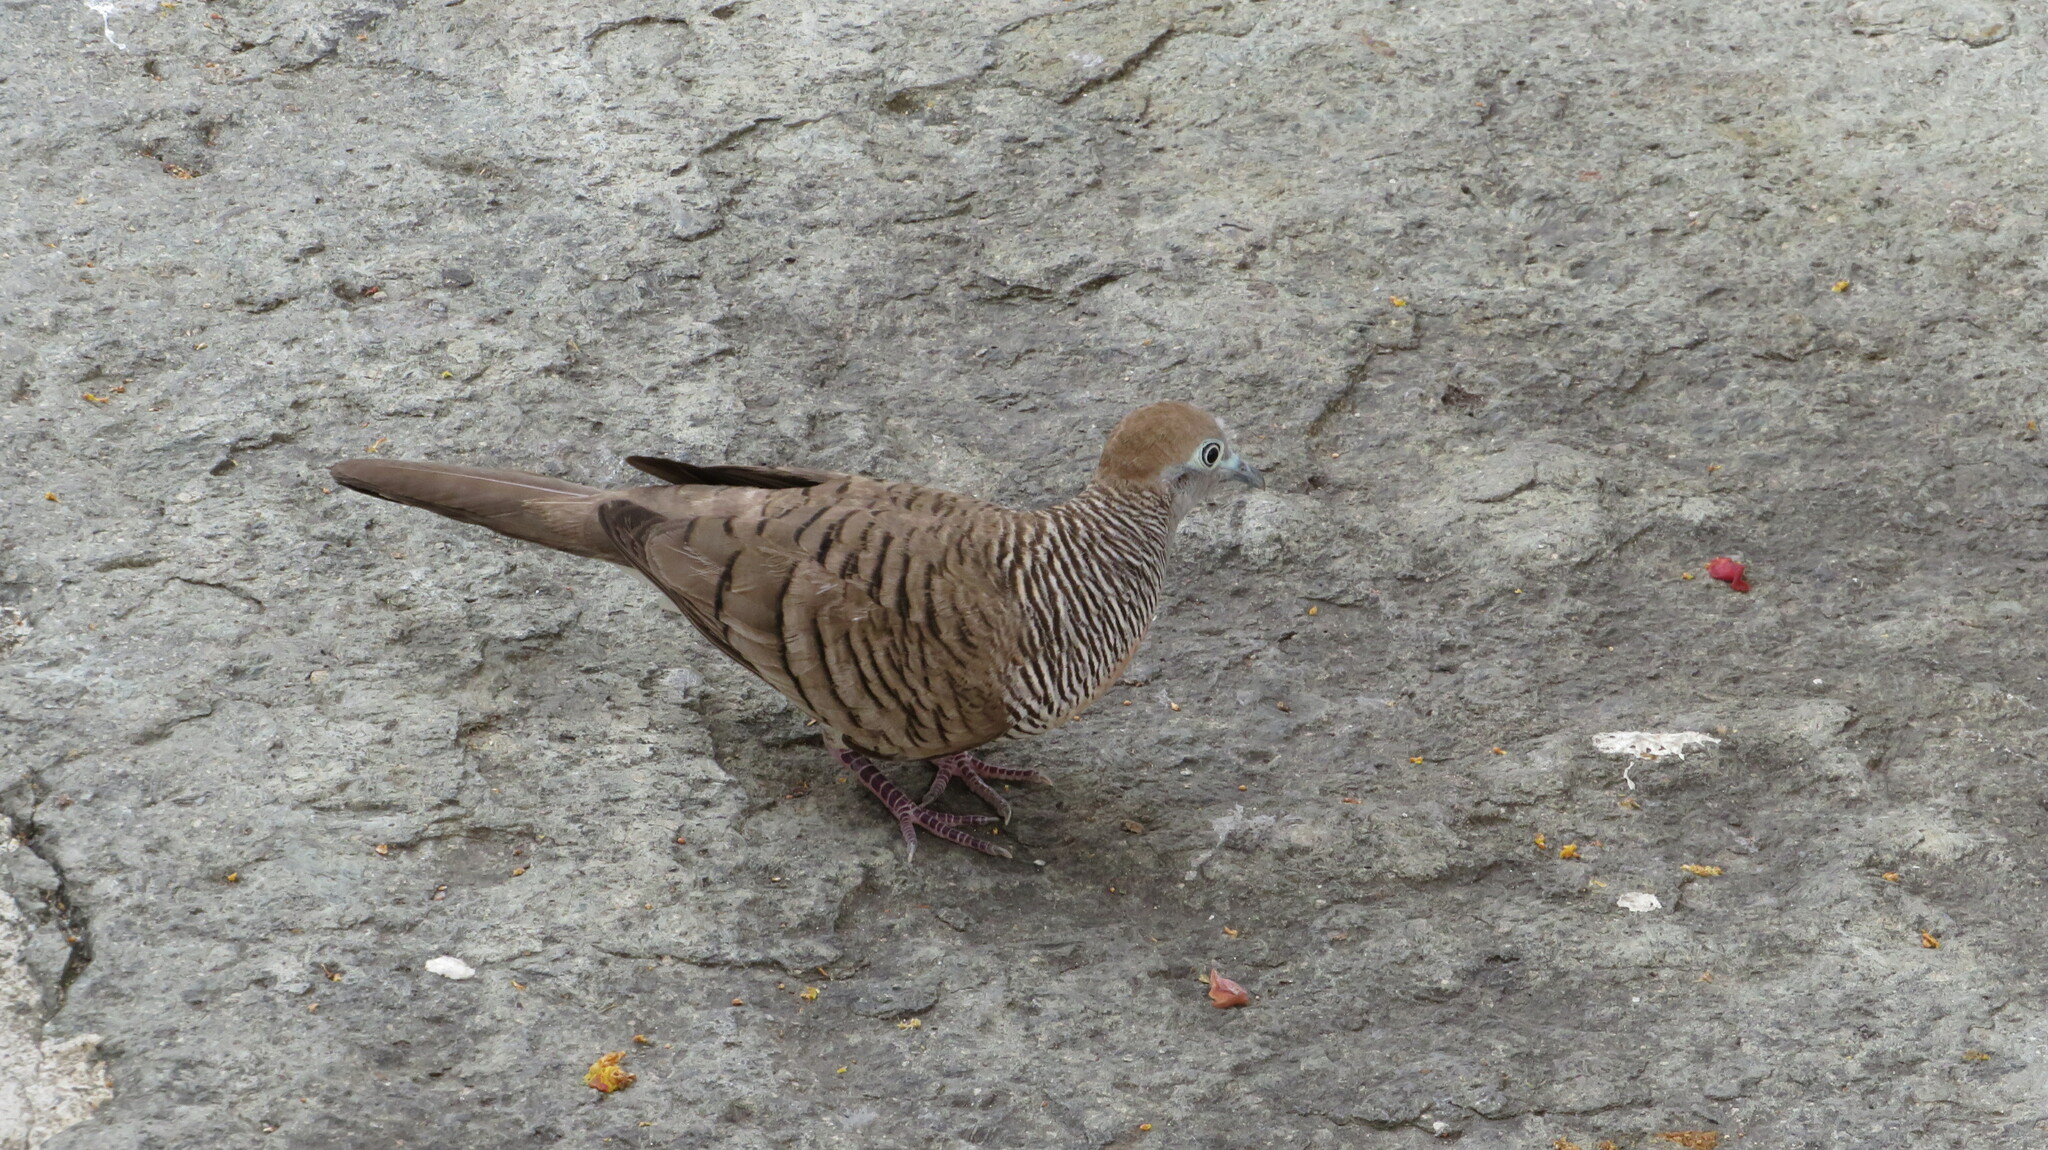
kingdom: Animalia
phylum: Chordata
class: Aves
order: Columbiformes
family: Columbidae
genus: Geopelia
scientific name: Geopelia striata
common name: Zebra dove
